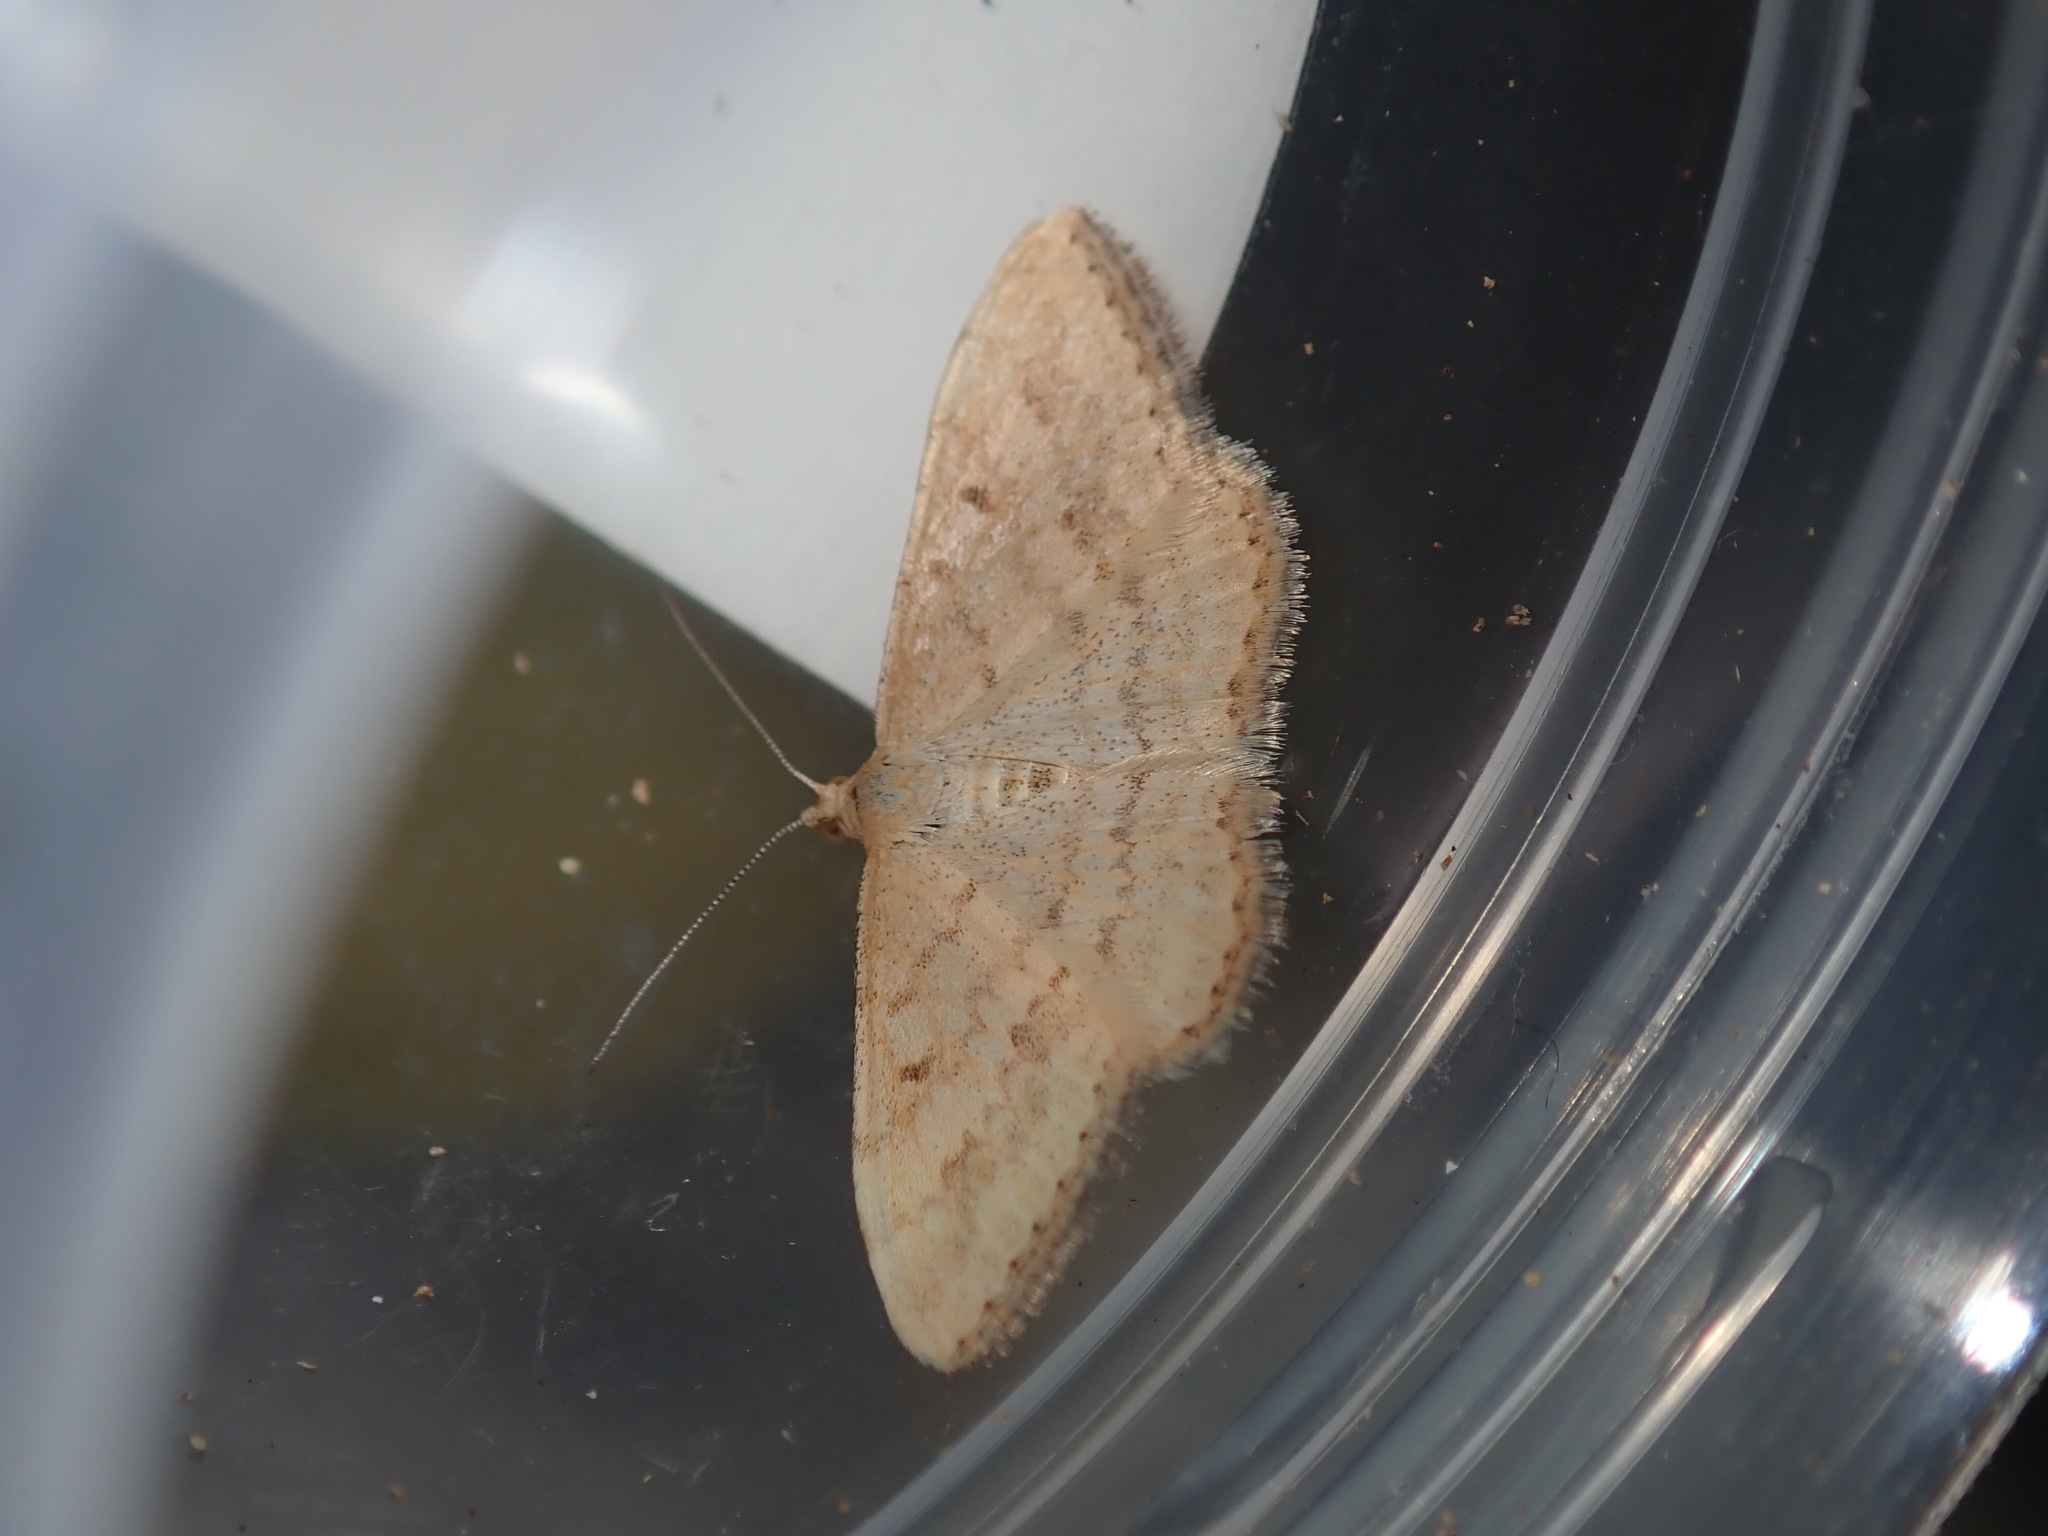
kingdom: Animalia
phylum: Arthropoda
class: Insecta
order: Lepidoptera
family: Geometridae
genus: Scopula
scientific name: Scopula rubraria
